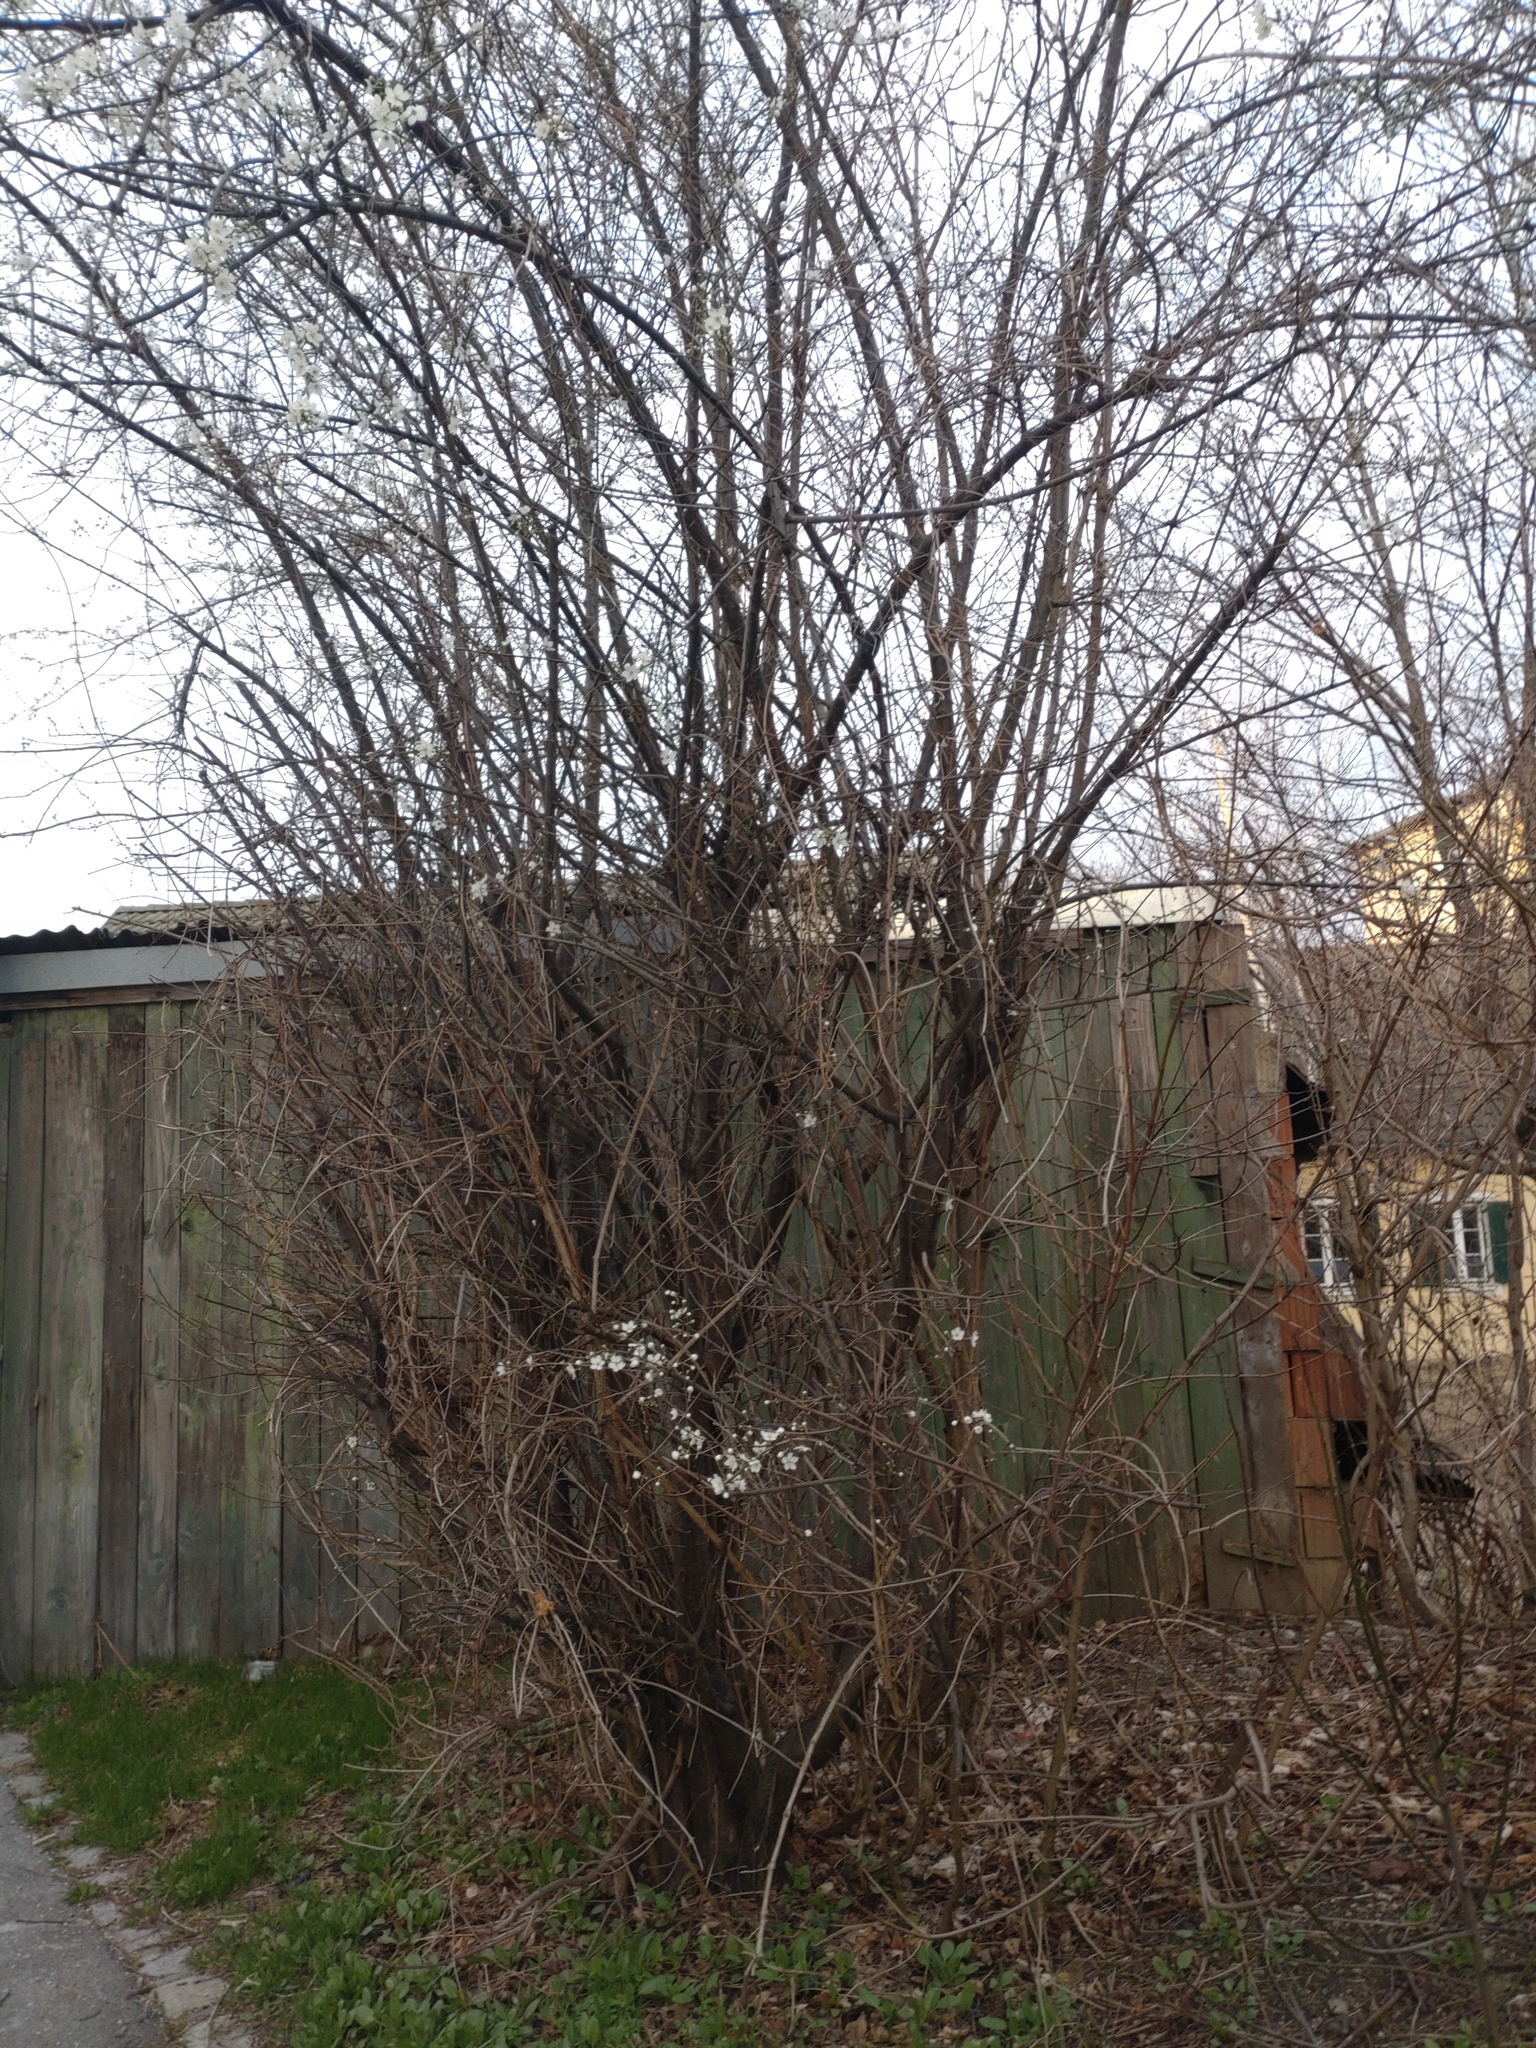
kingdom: Plantae
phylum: Tracheophyta
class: Magnoliopsida
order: Rosales
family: Rosaceae
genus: Prunus
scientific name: Prunus cerasifera
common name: Cherry plum
